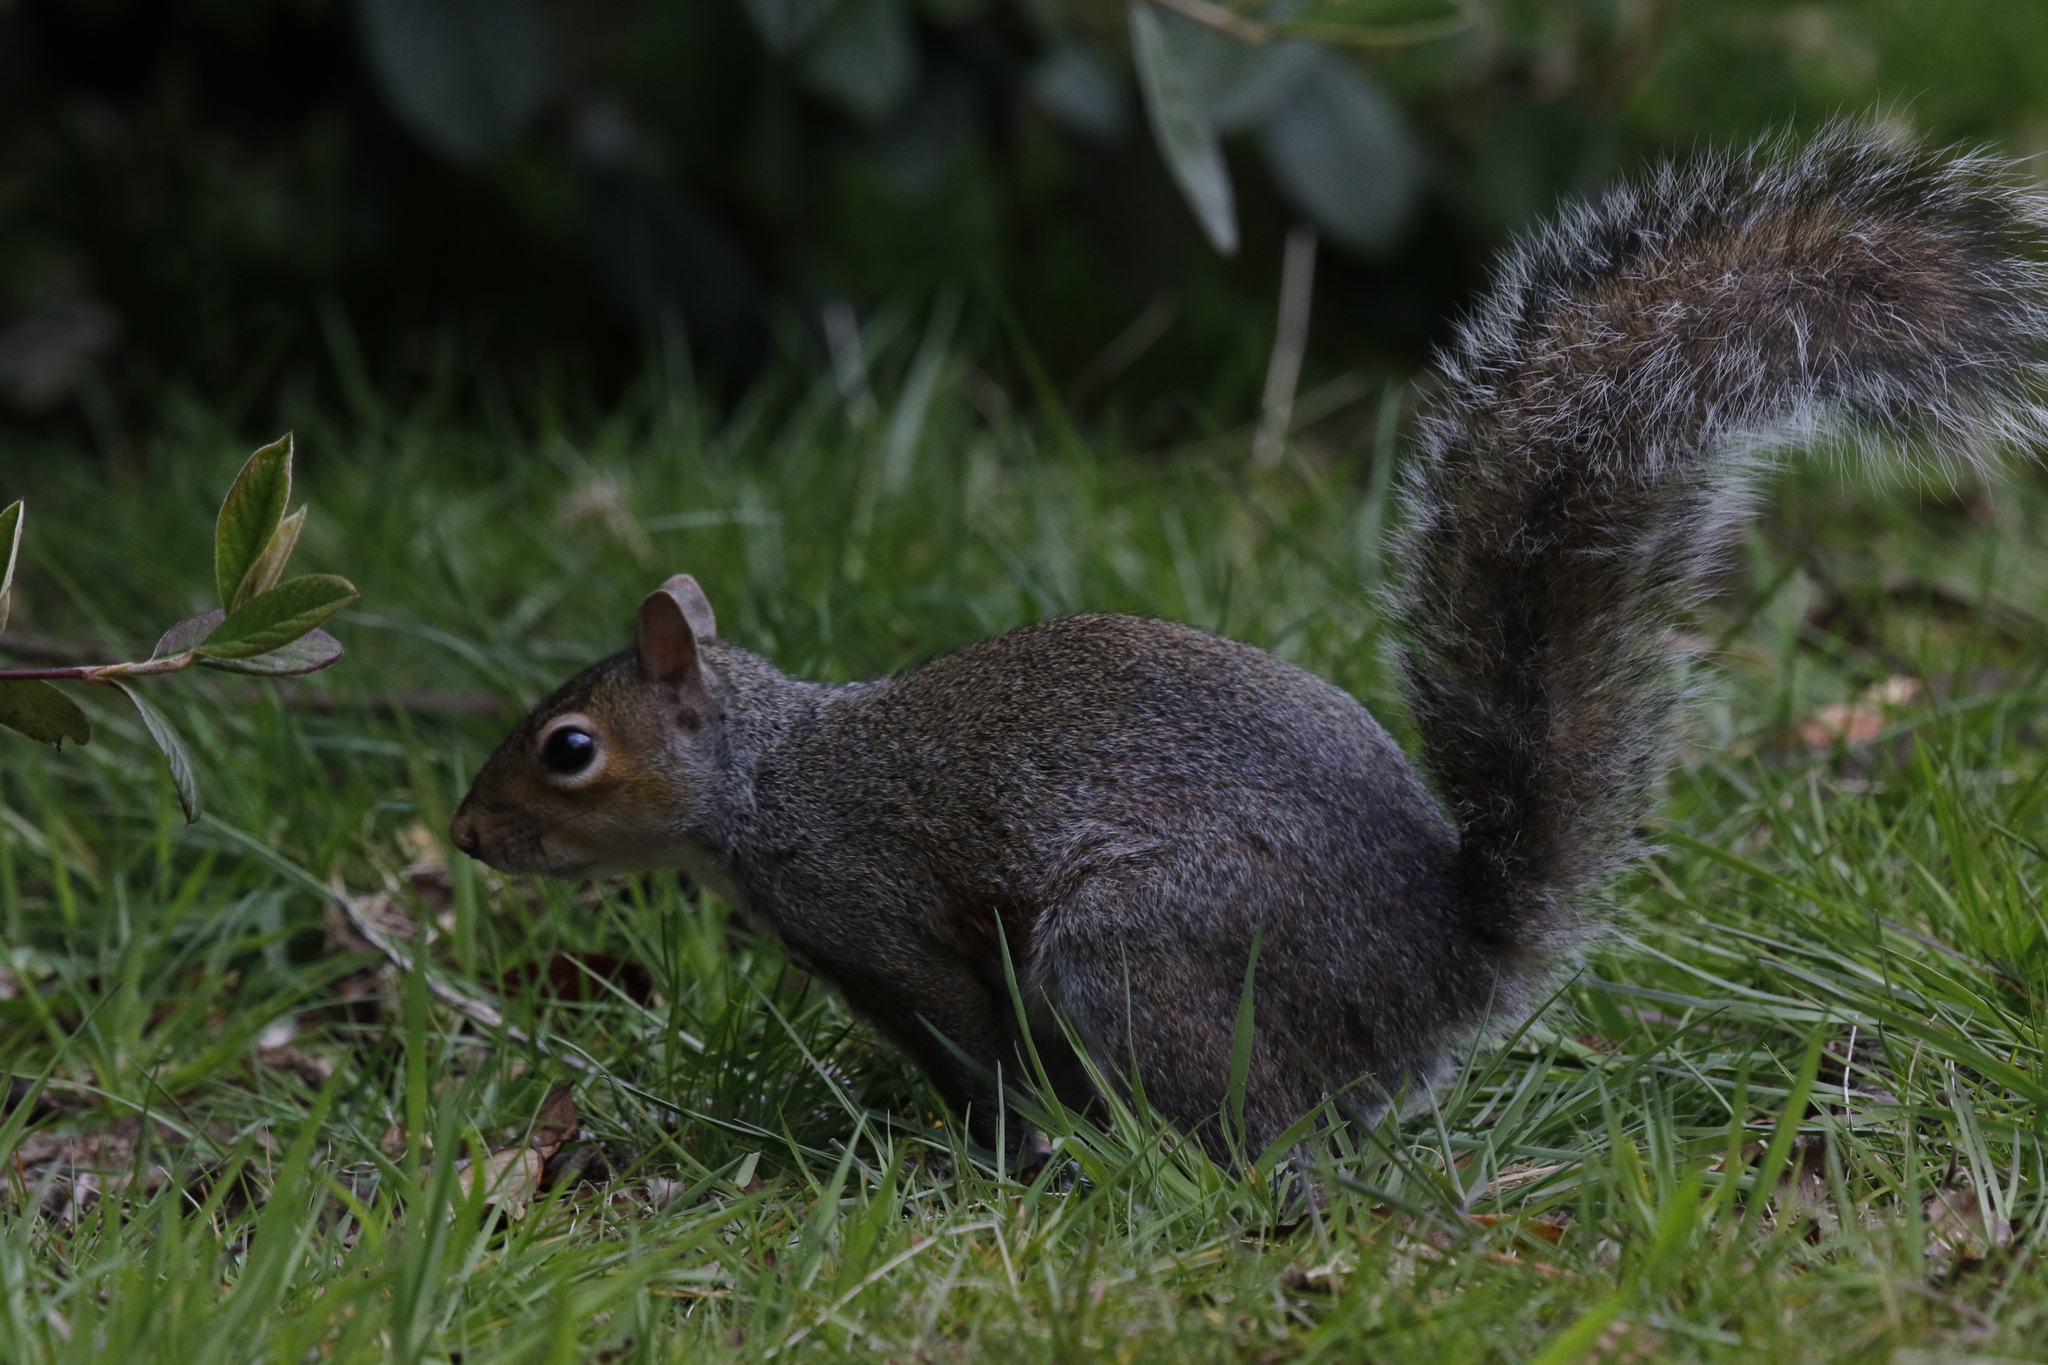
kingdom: Animalia
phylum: Chordata
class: Mammalia
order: Rodentia
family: Sciuridae
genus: Sciurus
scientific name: Sciurus carolinensis
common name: Eastern gray squirrel
